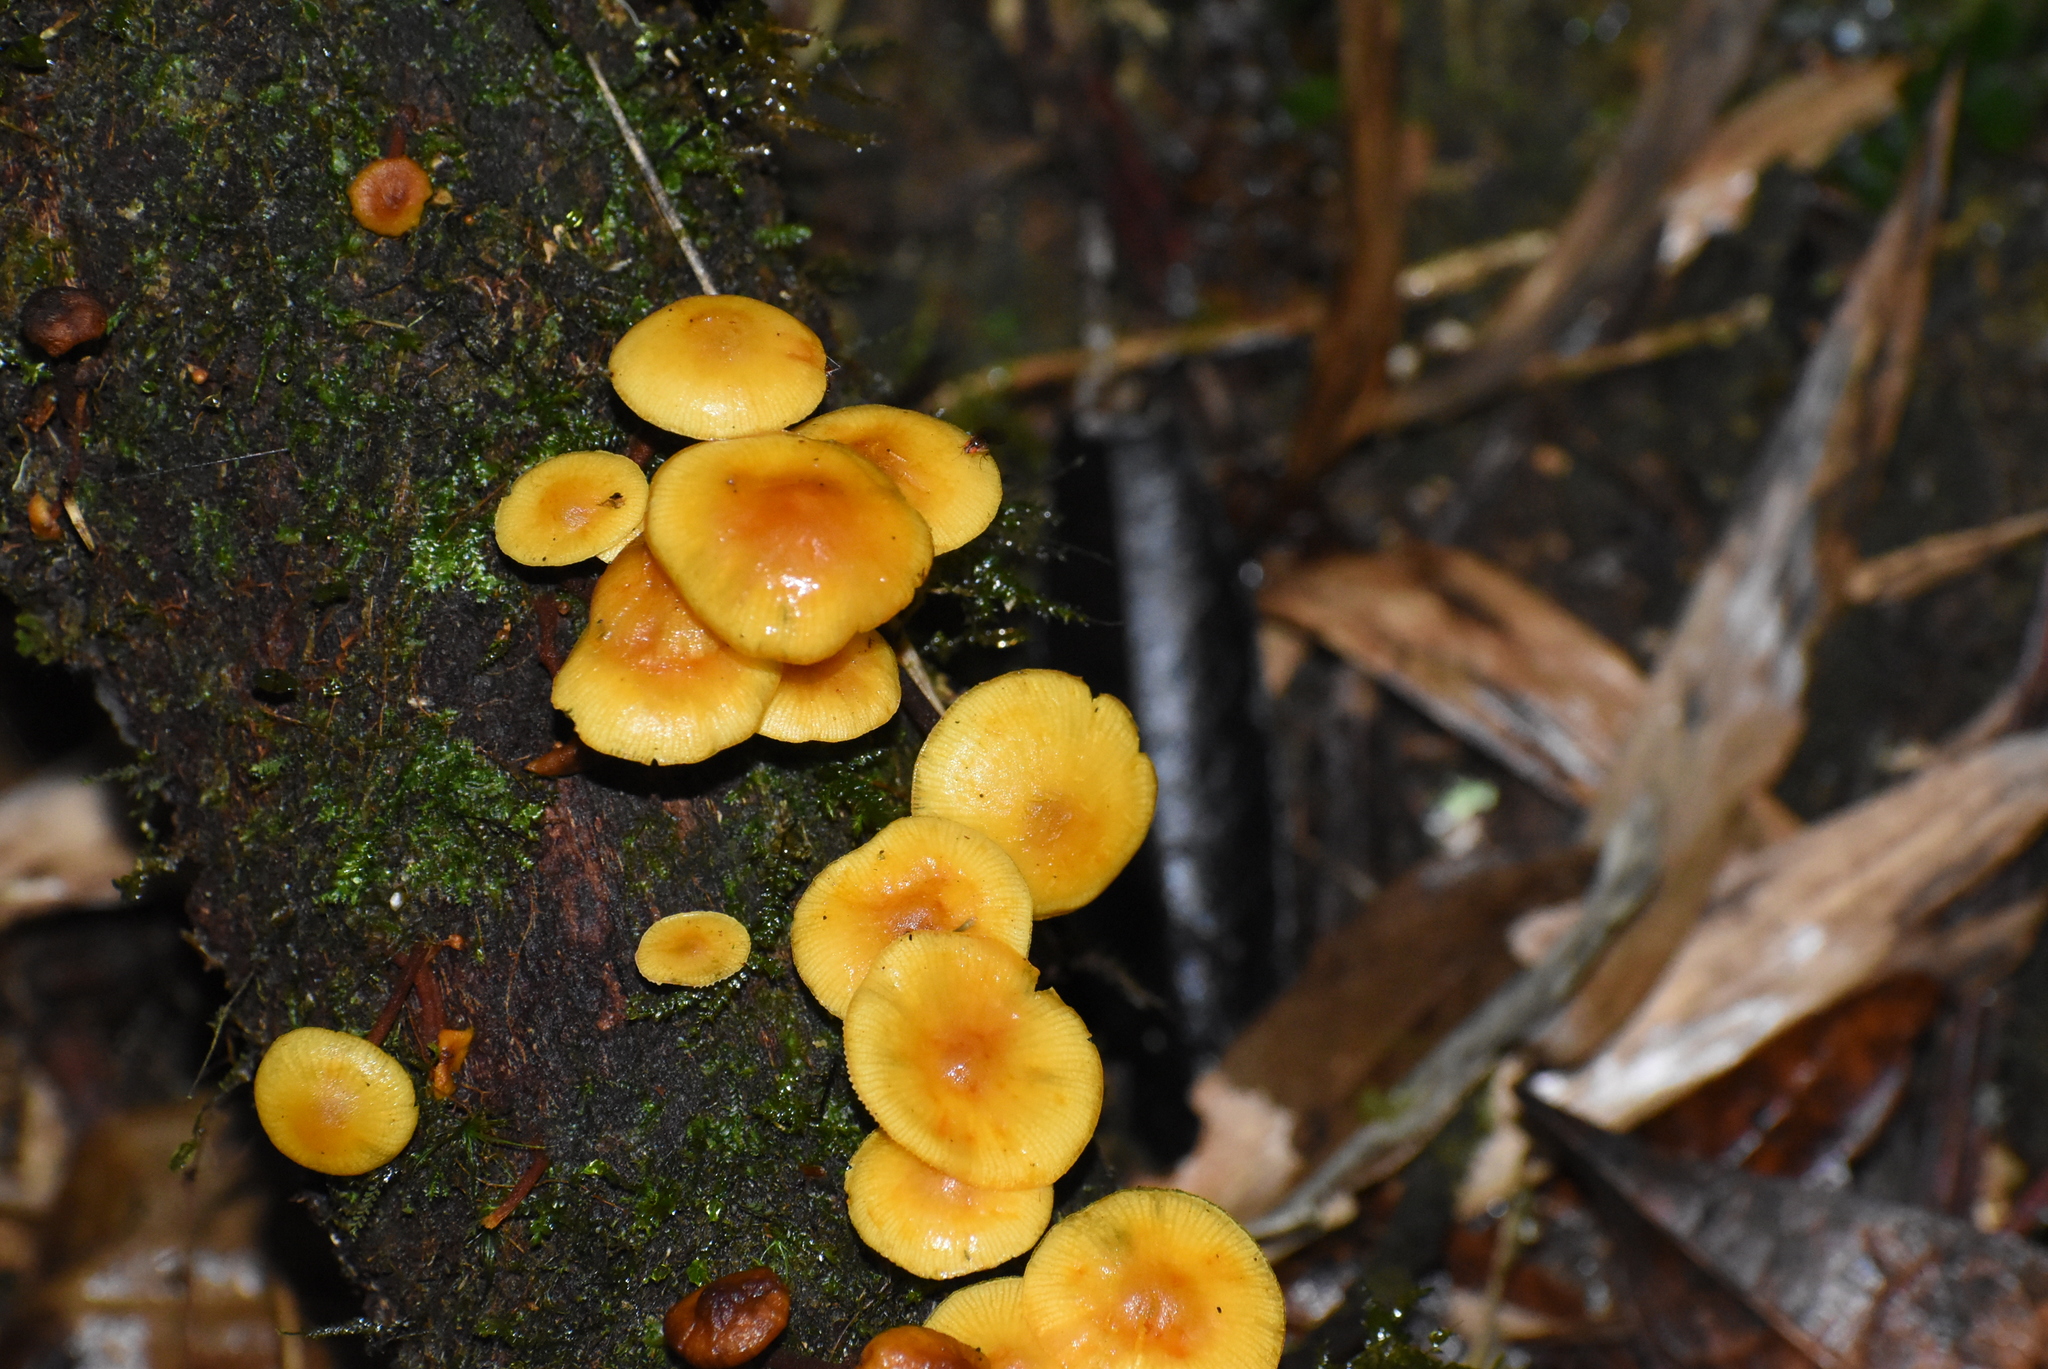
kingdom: Fungi
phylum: Basidiomycota
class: Agaricomycetes
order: Agaricales
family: Tricholomataceae
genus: Tricholomopsis
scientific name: Tricholomopsis aurea
